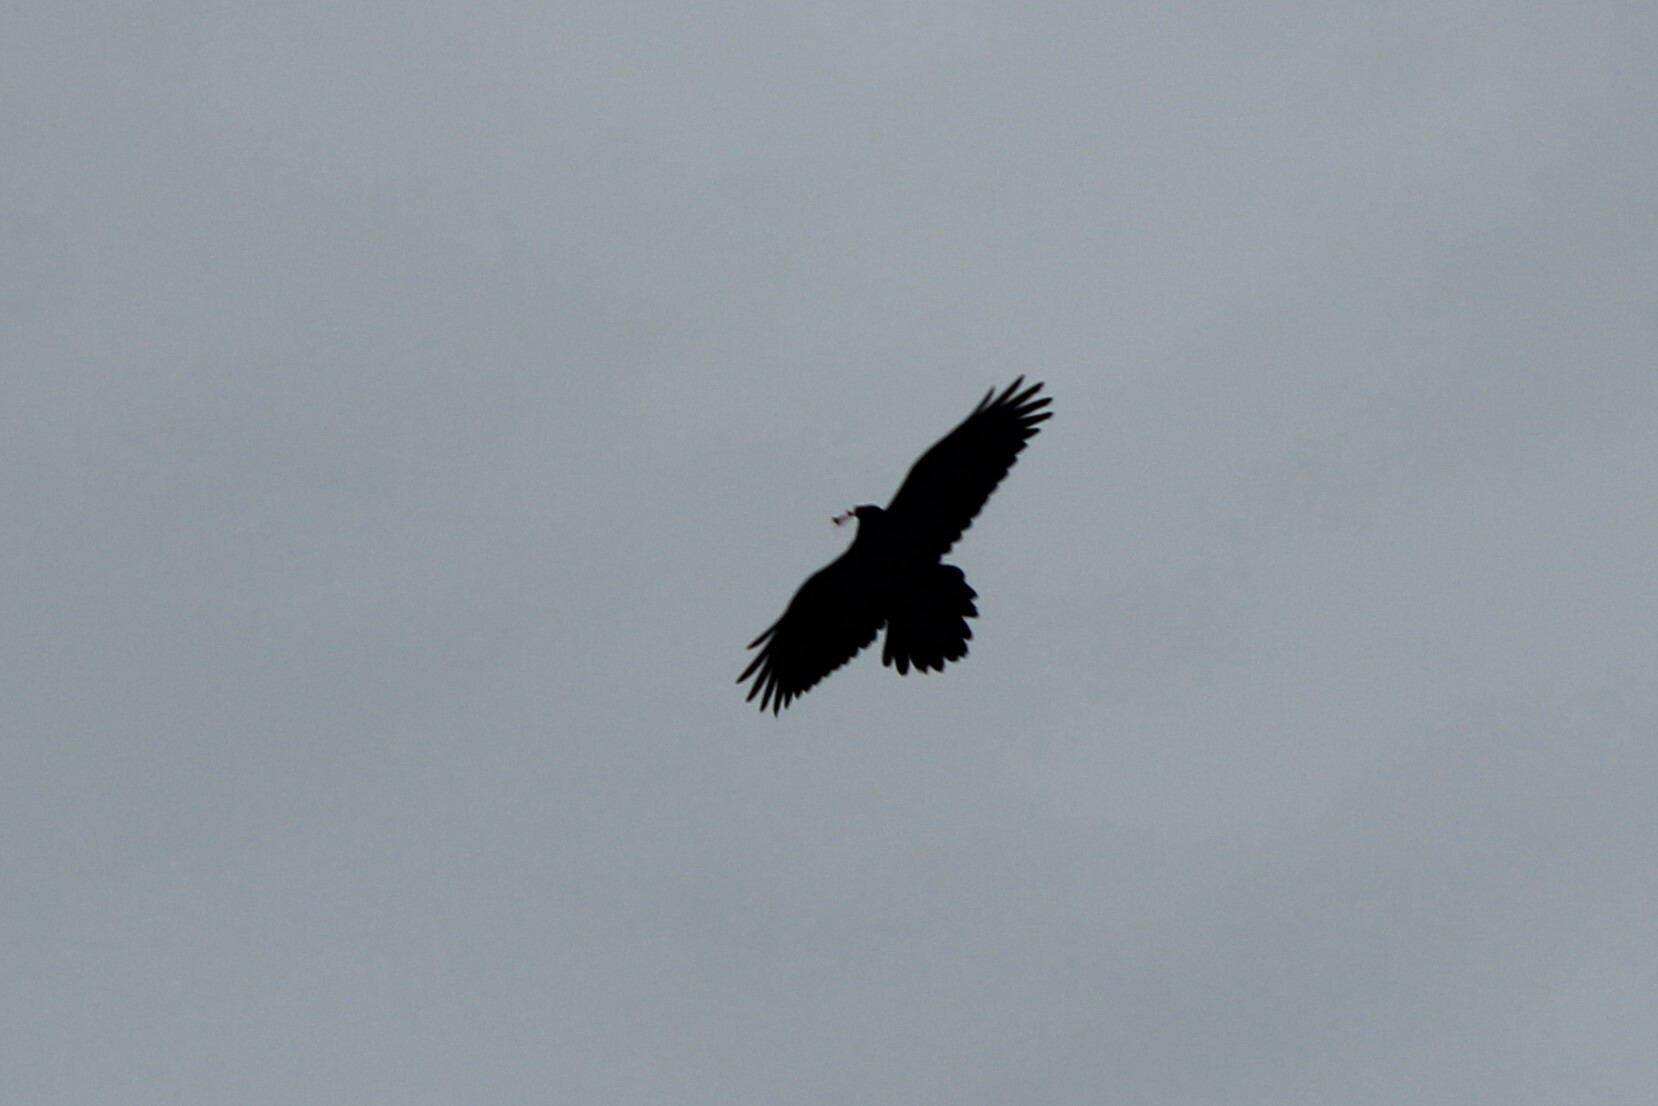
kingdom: Animalia
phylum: Chordata
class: Aves
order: Passeriformes
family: Corvidae
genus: Corvus
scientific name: Corvus corax
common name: Common raven
